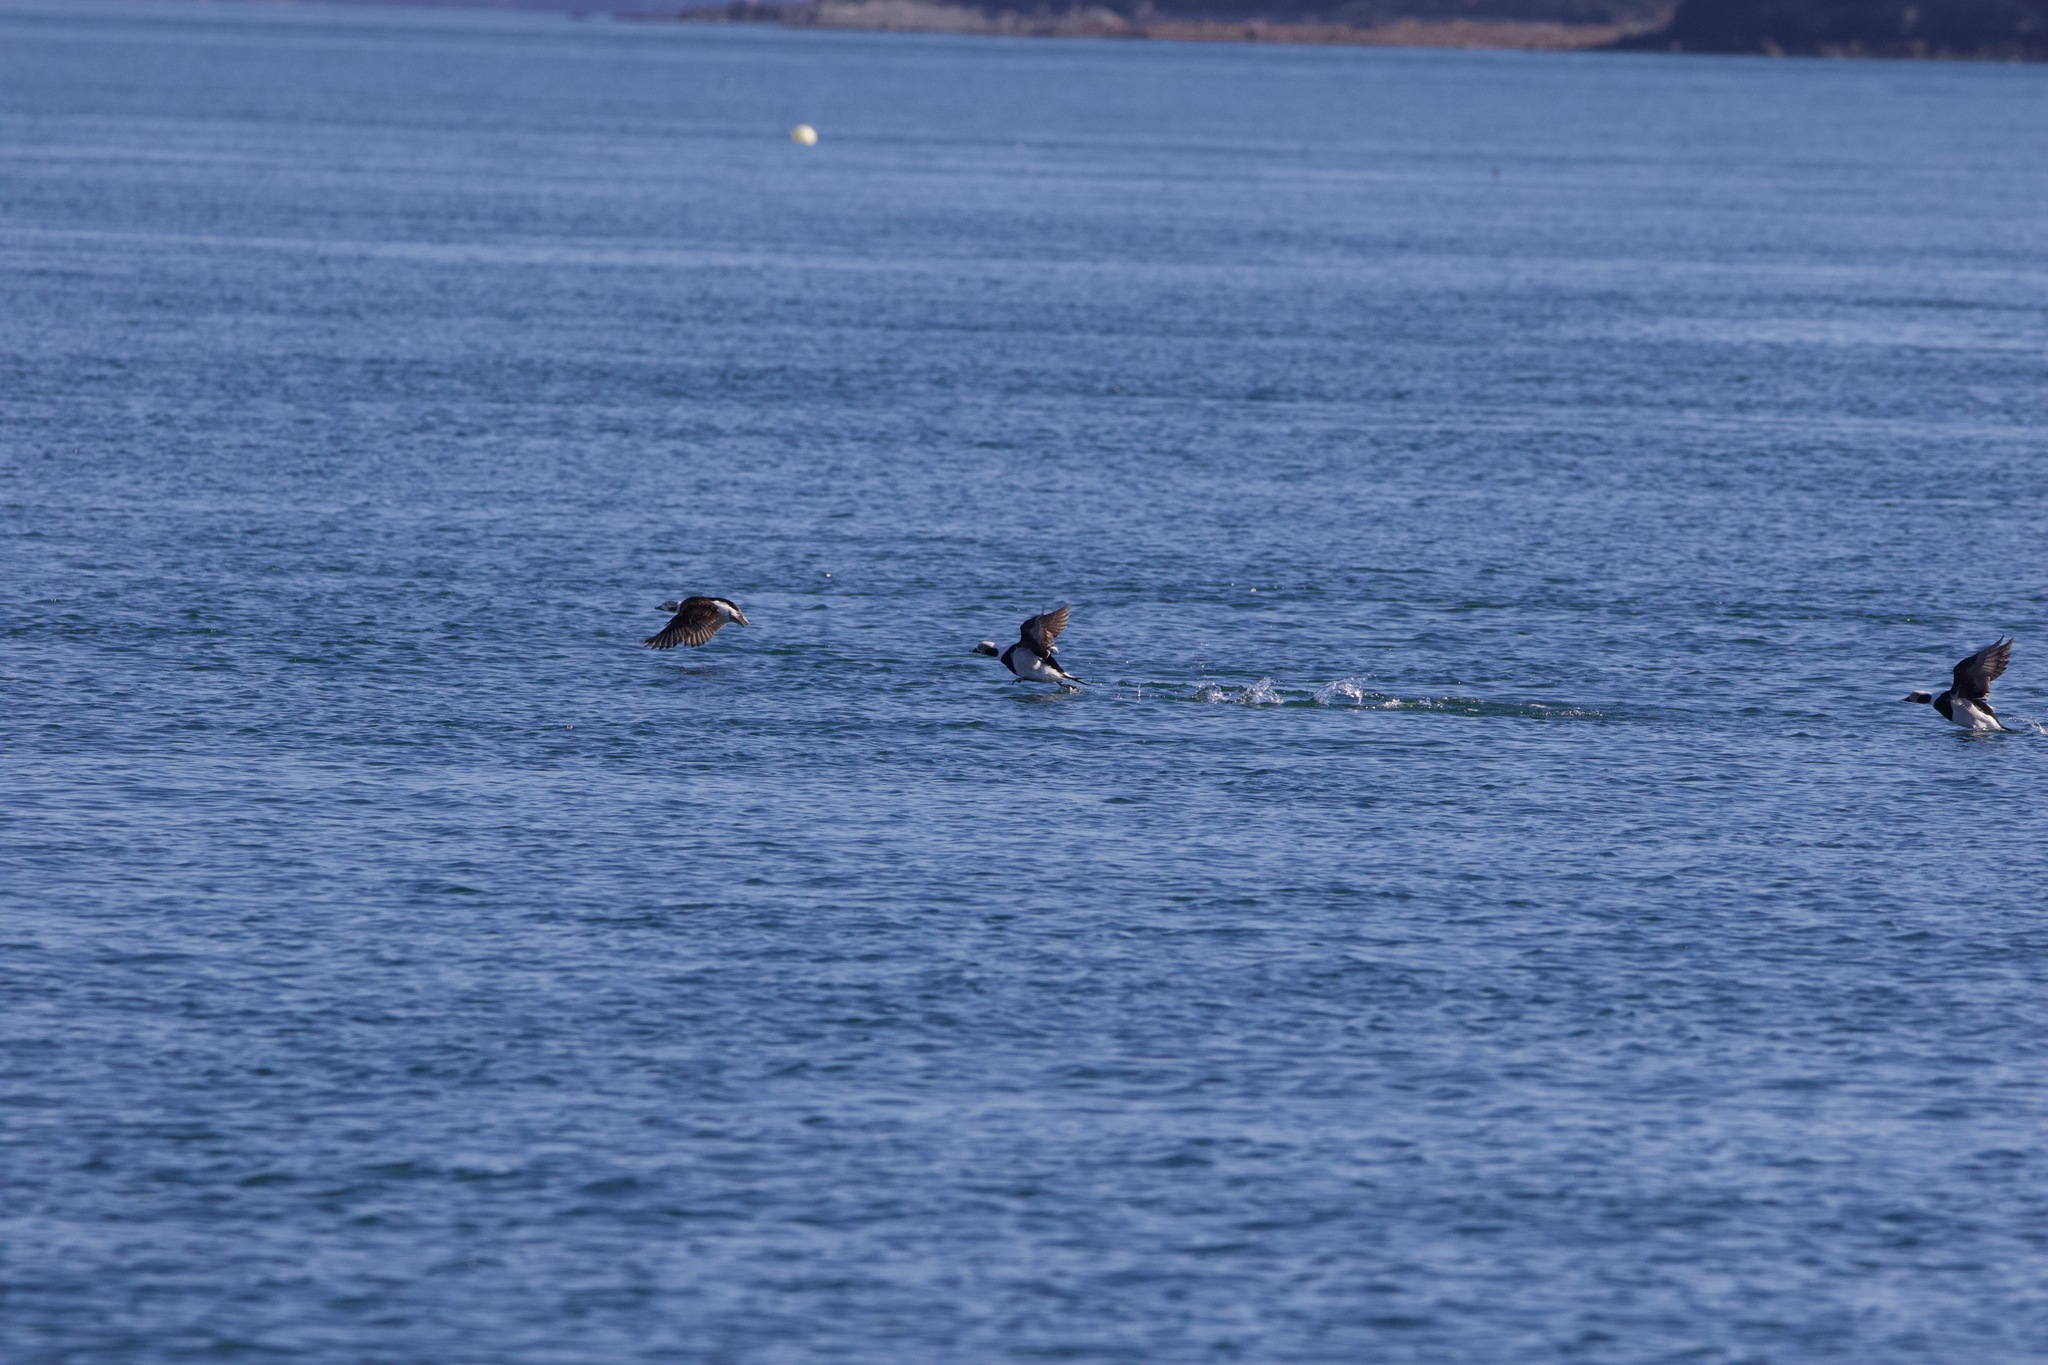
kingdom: Animalia
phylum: Chordata
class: Aves
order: Anseriformes
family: Anatidae
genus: Clangula
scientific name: Clangula hyemalis
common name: Long-tailed duck
